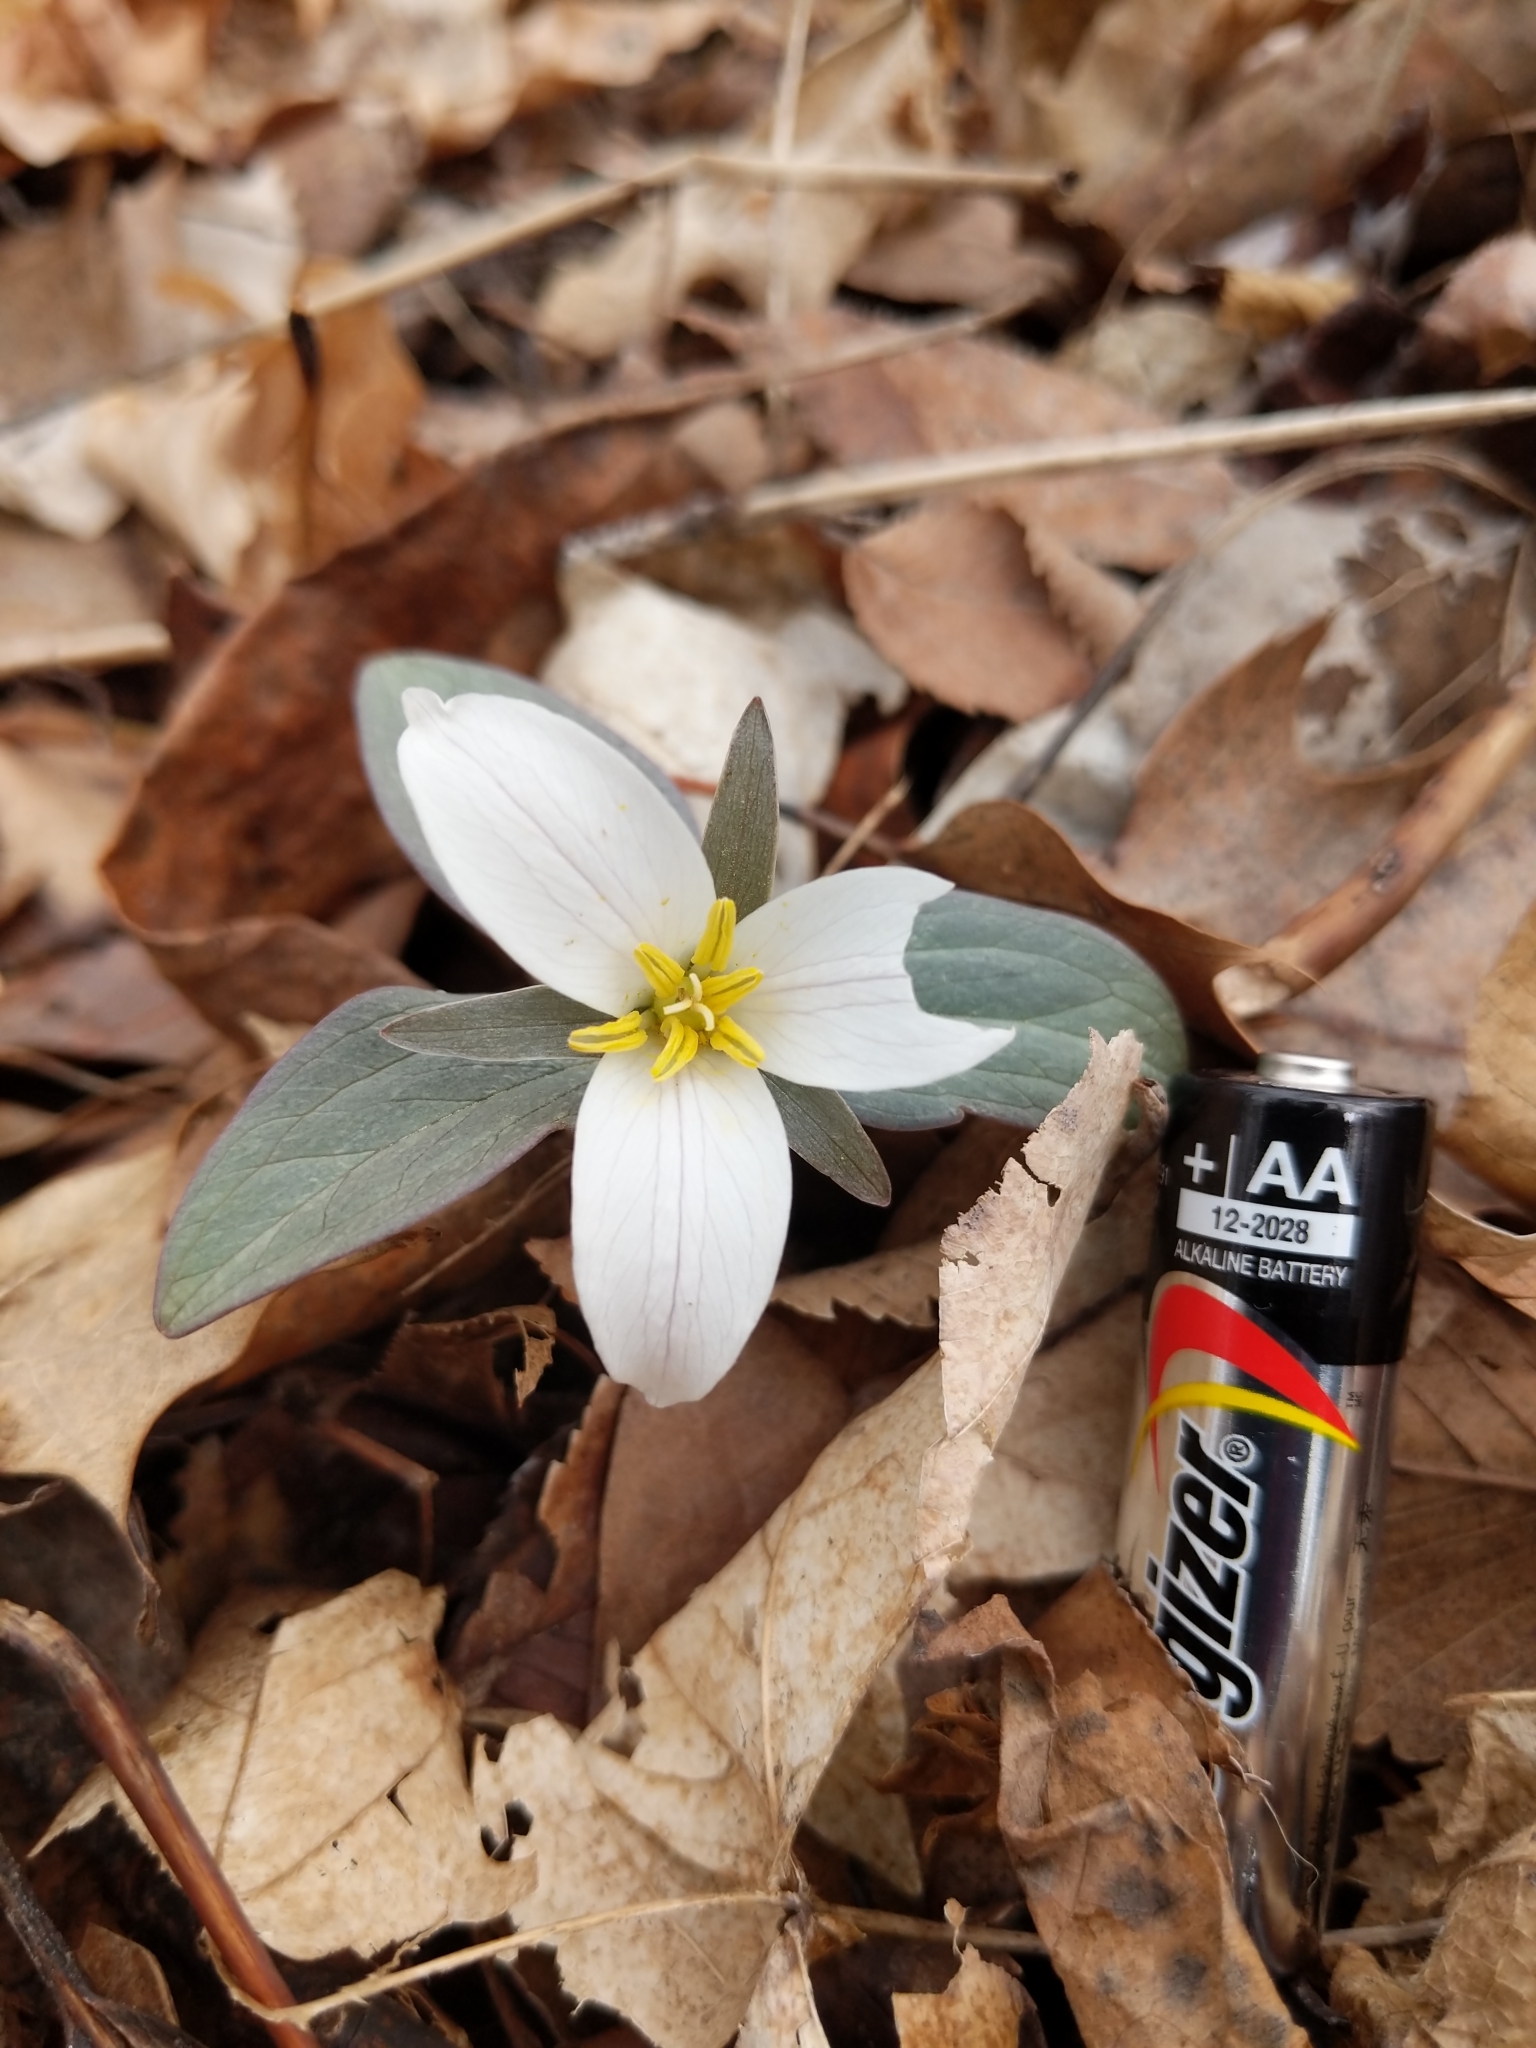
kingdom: Plantae
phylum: Tracheophyta
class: Liliopsida
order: Liliales
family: Melanthiaceae
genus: Trillium
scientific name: Trillium nivale
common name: Dwarf white trillium
